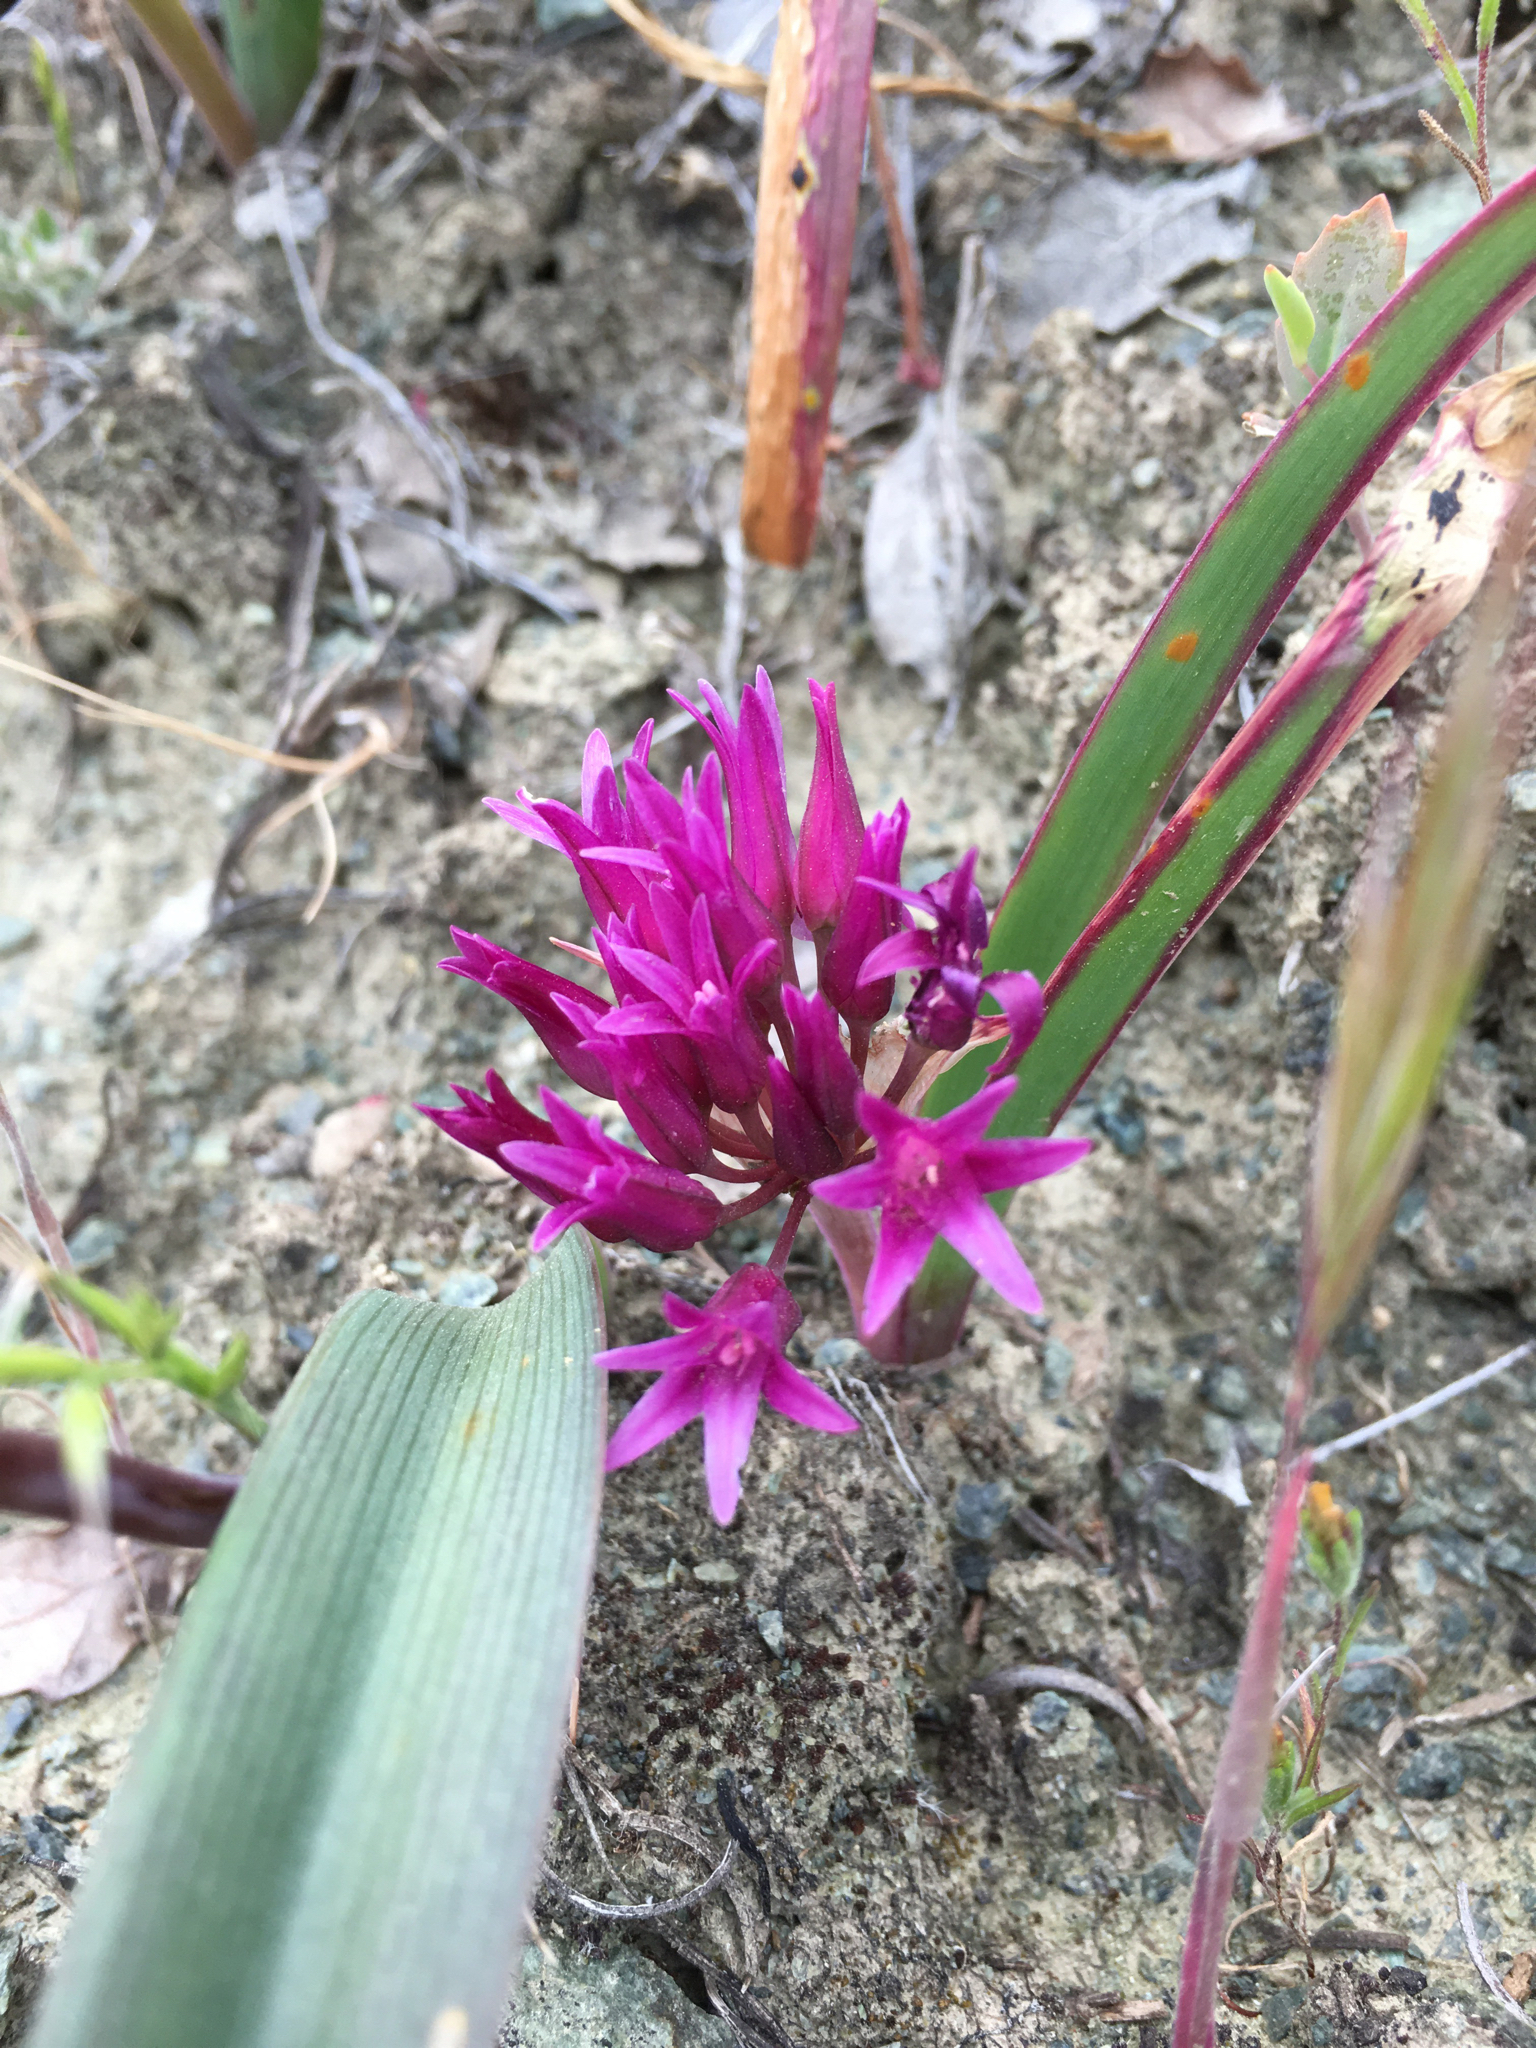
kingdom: Plantae
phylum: Tracheophyta
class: Liliopsida
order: Asparagales
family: Amaryllidaceae
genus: Allium
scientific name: Allium falcifolium
